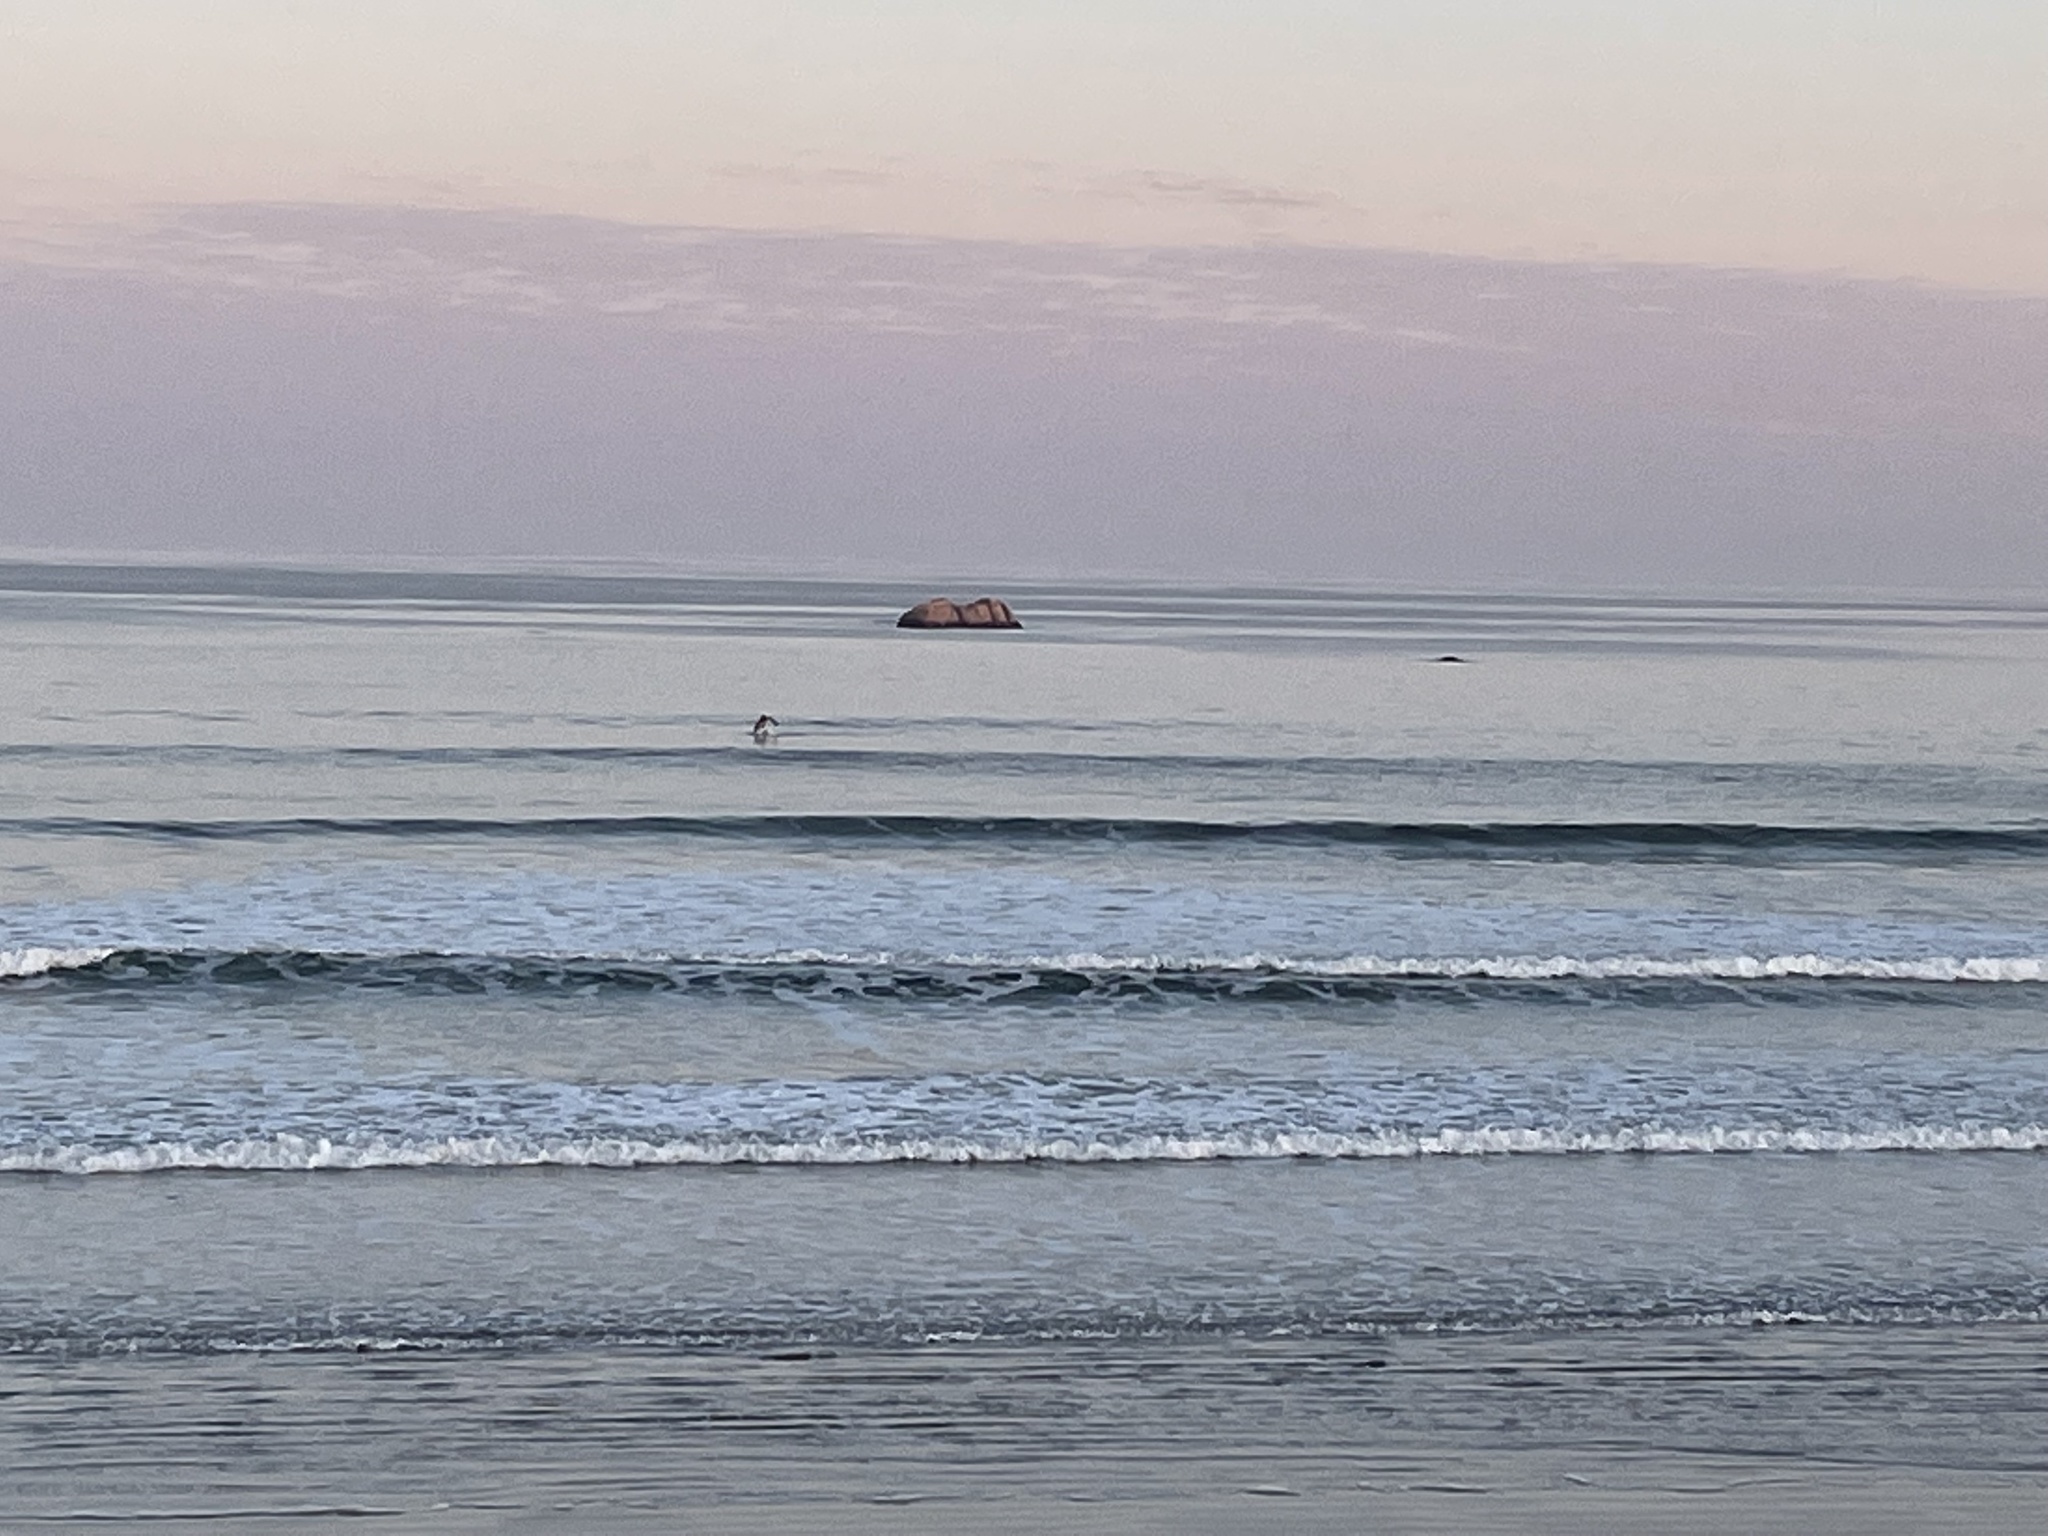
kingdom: Animalia
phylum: Chordata
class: Mammalia
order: Cetacea
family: Delphinidae
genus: Cephalorhynchus
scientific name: Cephalorhynchus heavisidii
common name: Haviside's dolphin
